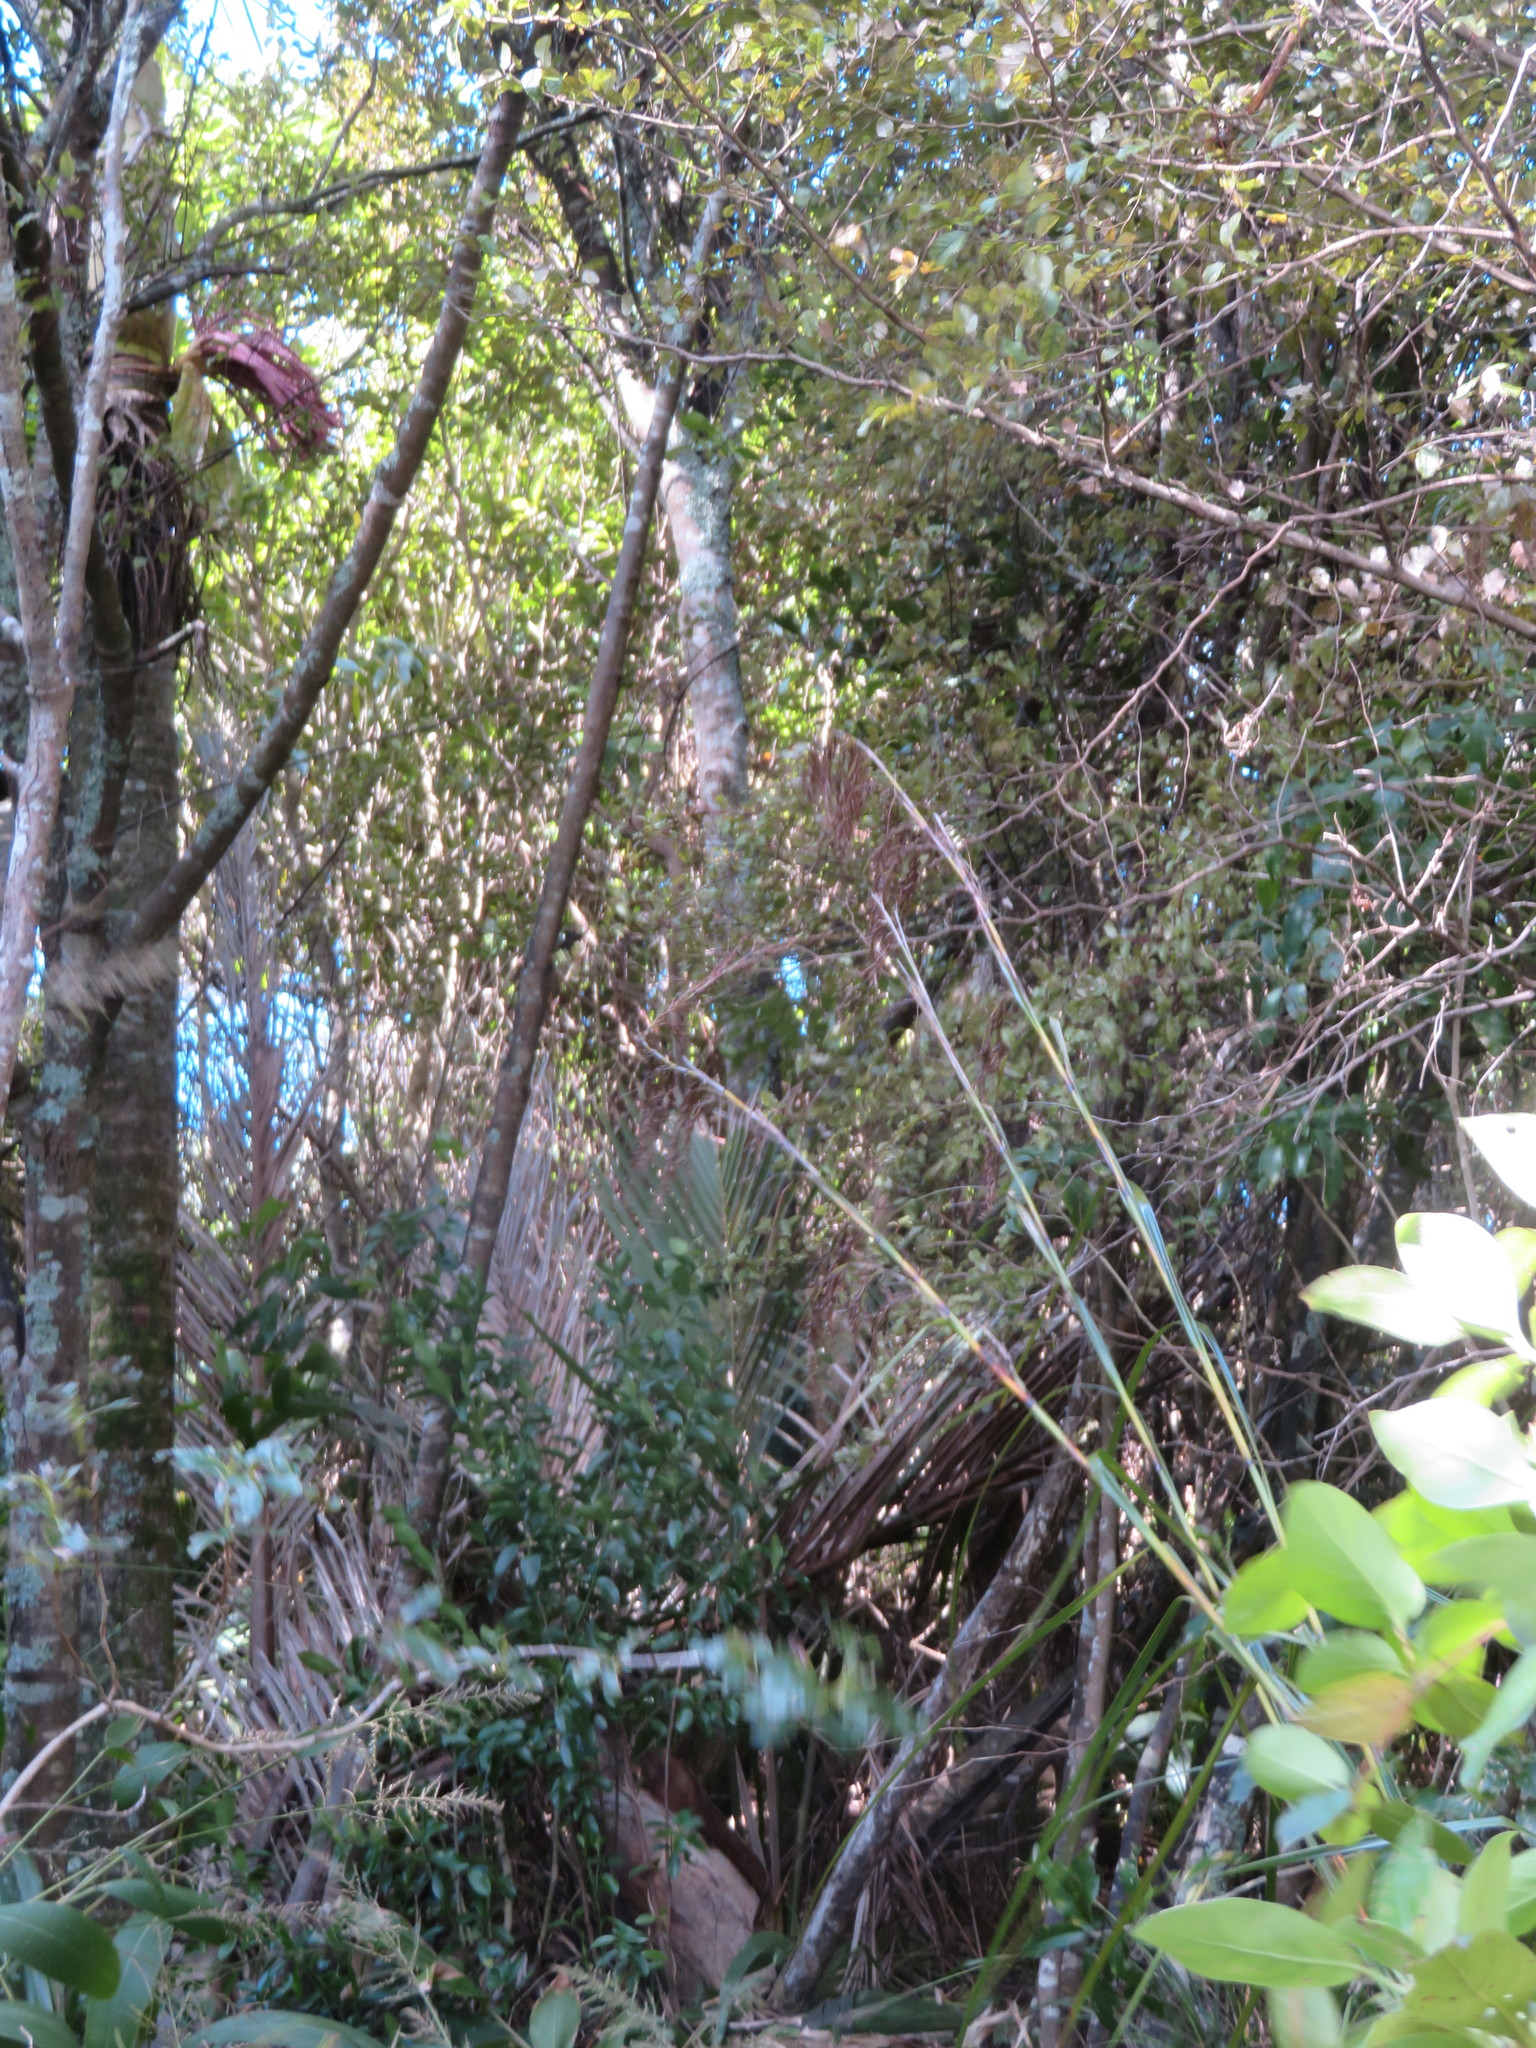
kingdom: Plantae
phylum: Tracheophyta
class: Liliopsida
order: Arecales
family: Arecaceae
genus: Rhopalostylis
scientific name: Rhopalostylis sapida
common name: Feather-duster palm
